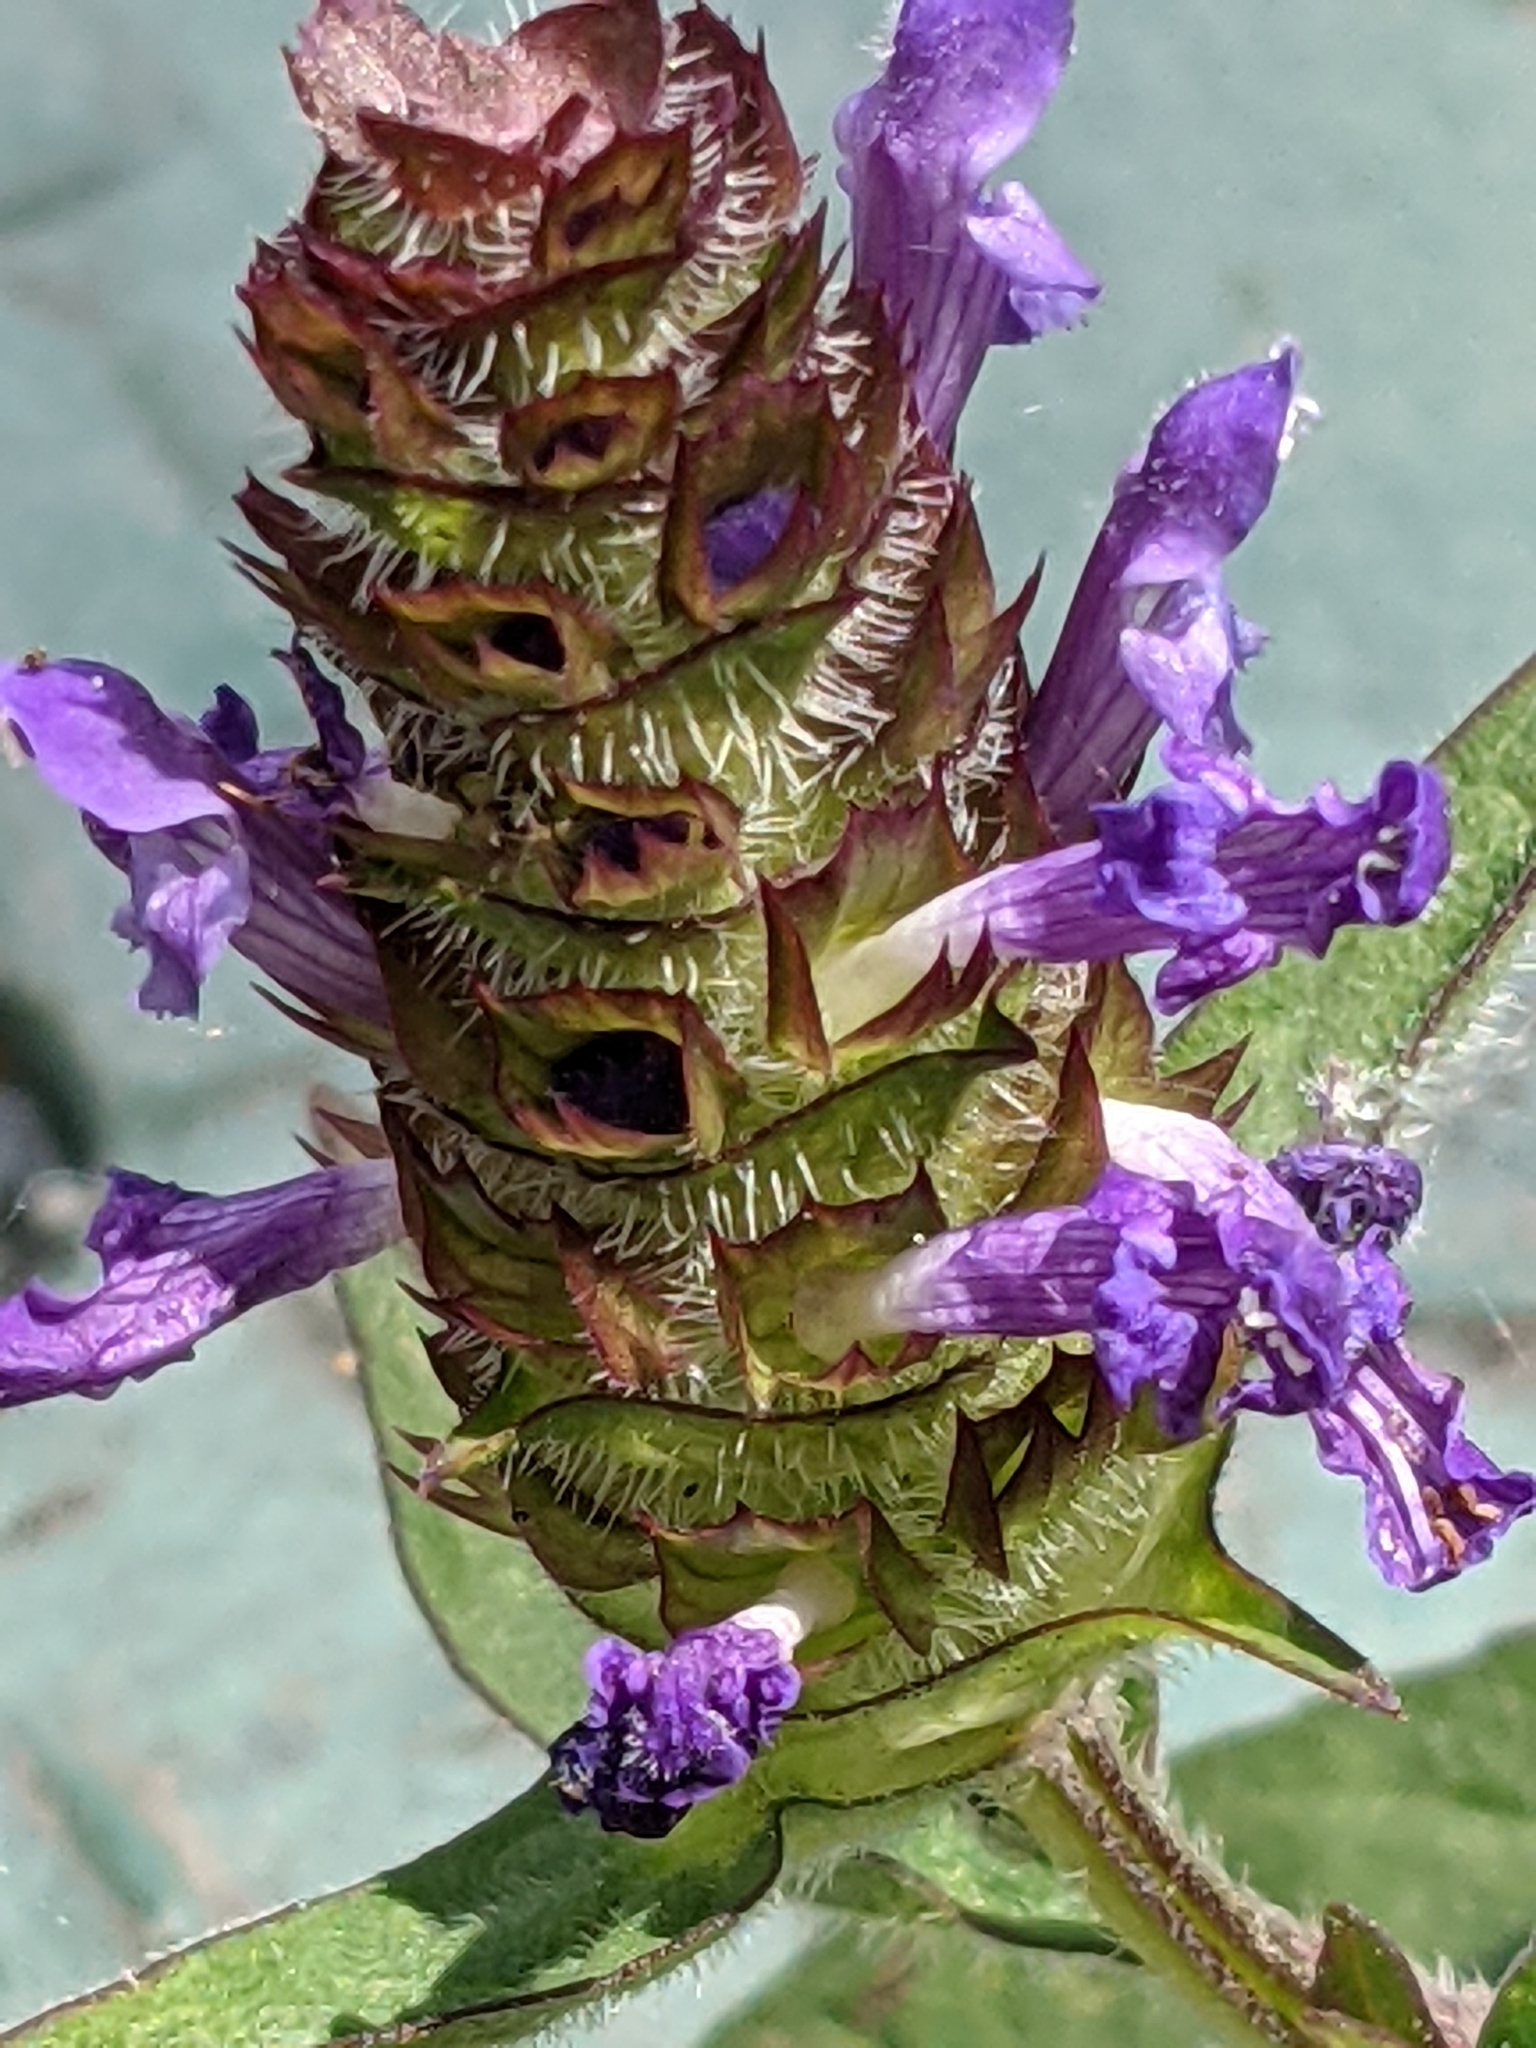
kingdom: Plantae
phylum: Tracheophyta
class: Magnoliopsida
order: Lamiales
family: Lamiaceae
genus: Prunella
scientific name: Prunella vulgaris
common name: Heal-all
